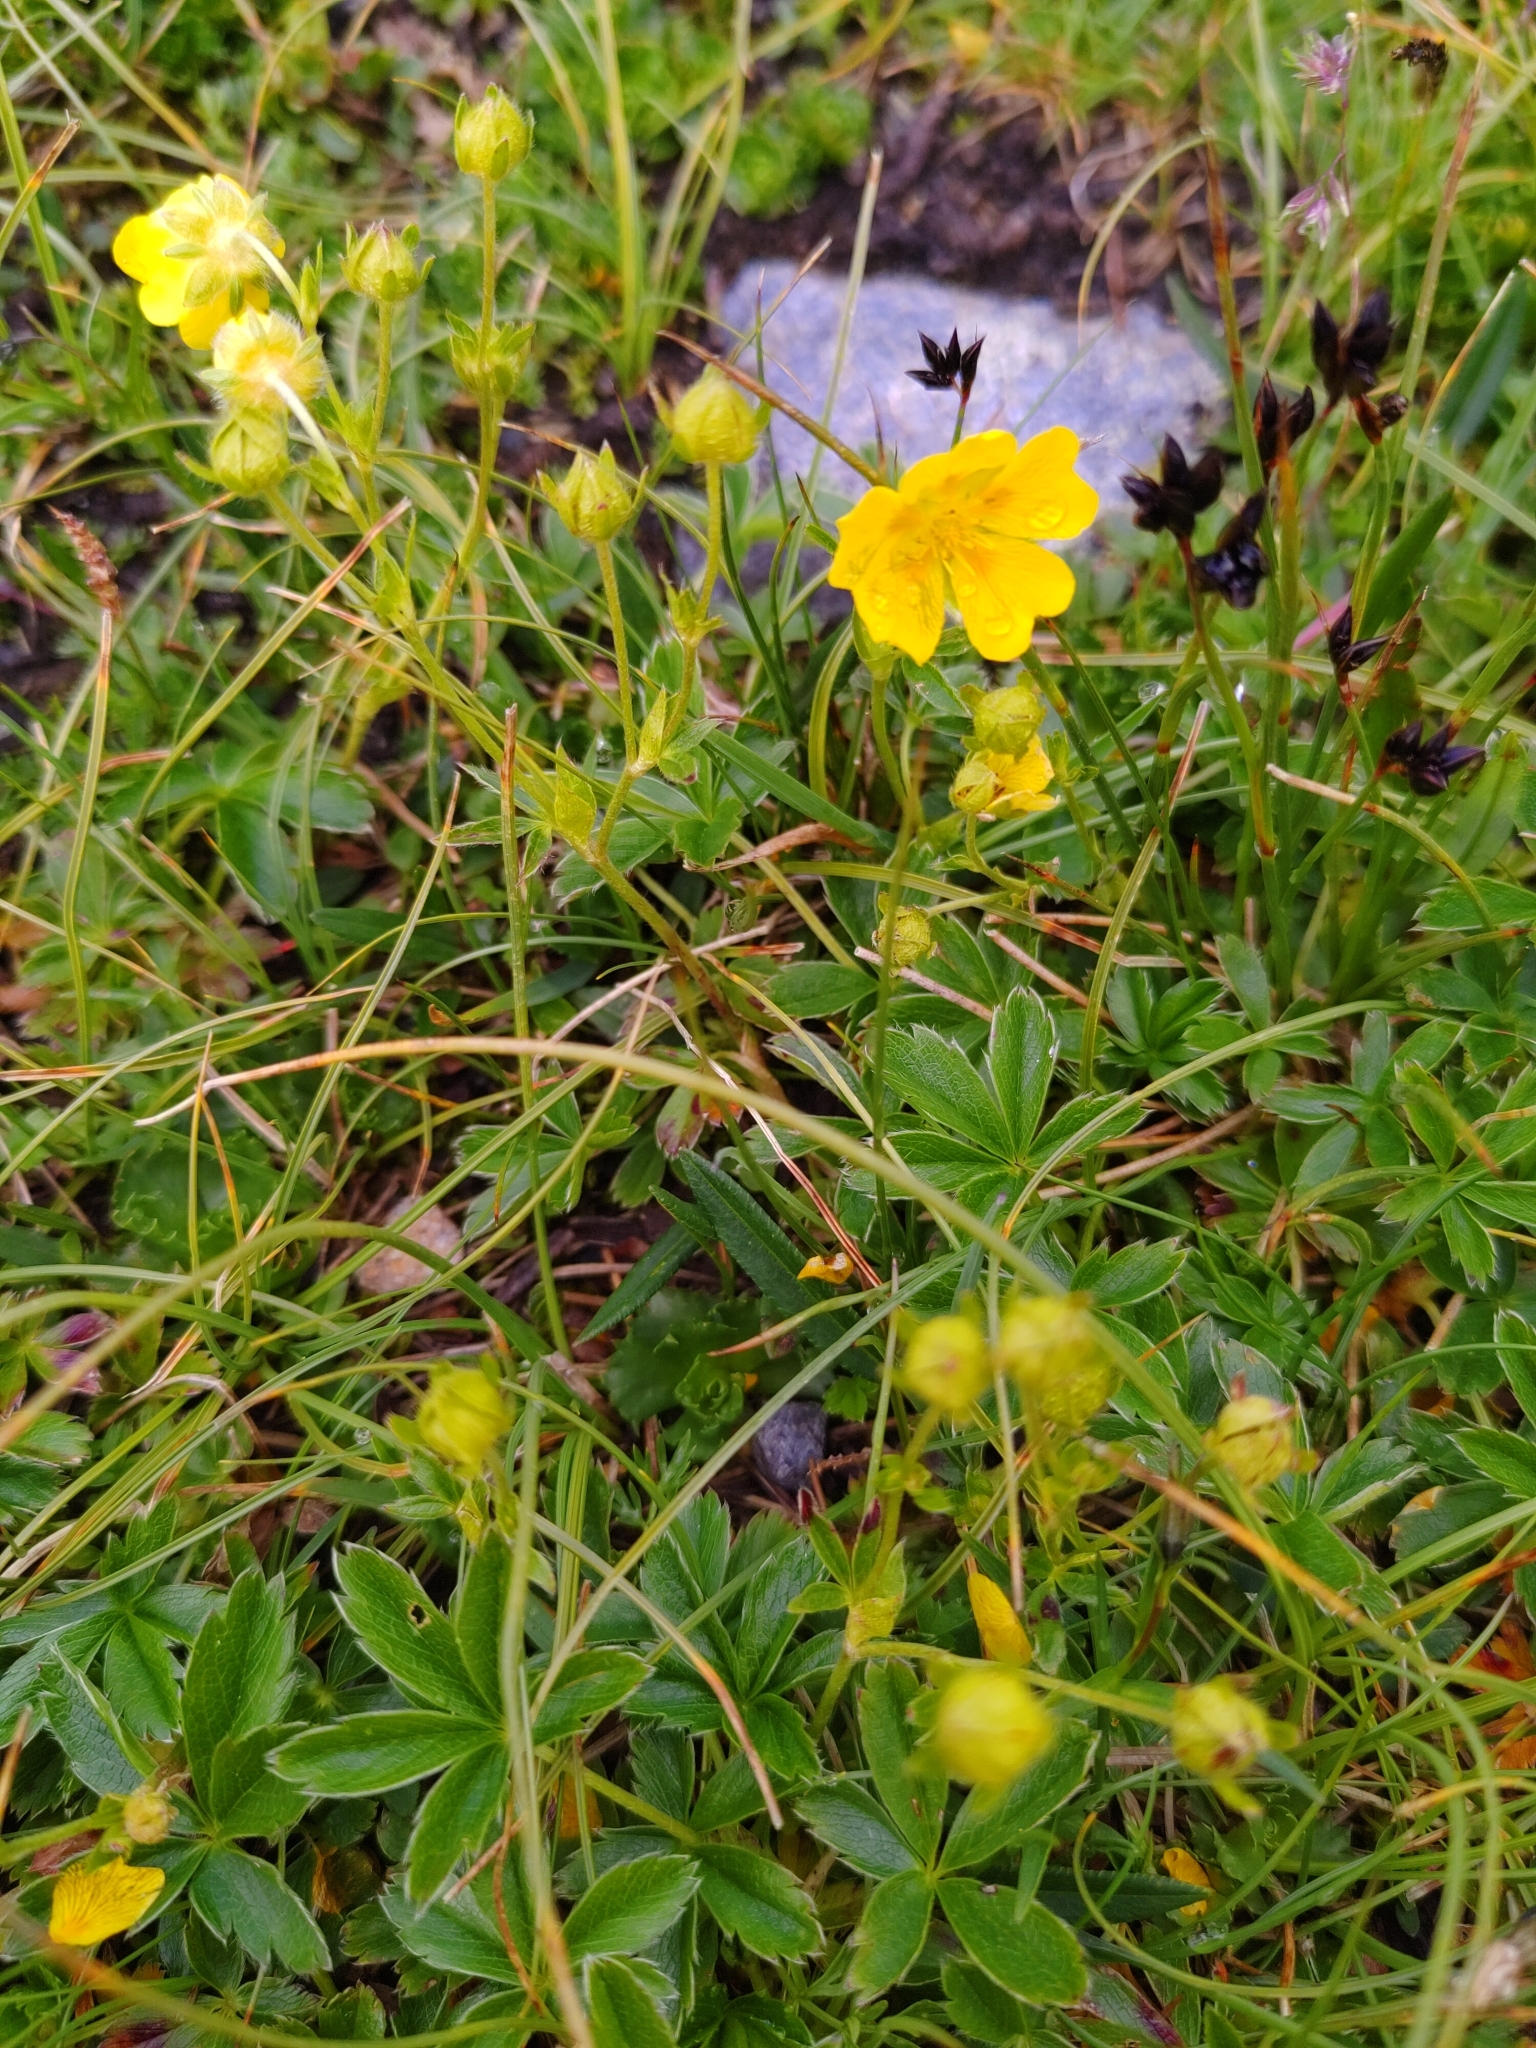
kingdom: Plantae
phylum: Tracheophyta
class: Magnoliopsida
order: Rosales
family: Rosaceae
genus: Potentilla
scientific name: Potentilla aurea
